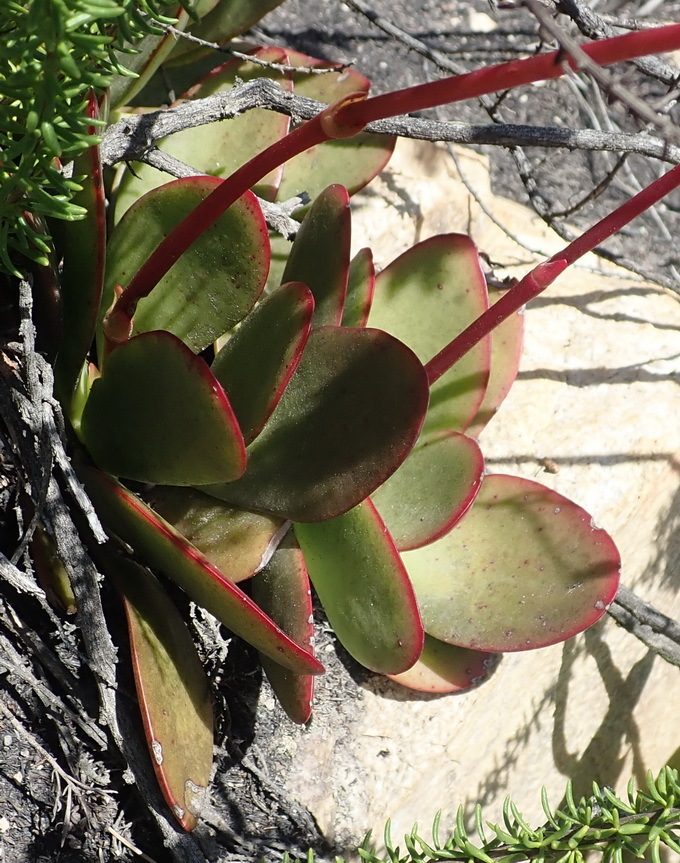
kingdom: Plantae
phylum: Tracheophyta
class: Magnoliopsida
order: Saxifragales
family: Crassulaceae
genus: Crassula
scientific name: Crassula nudicaulis
